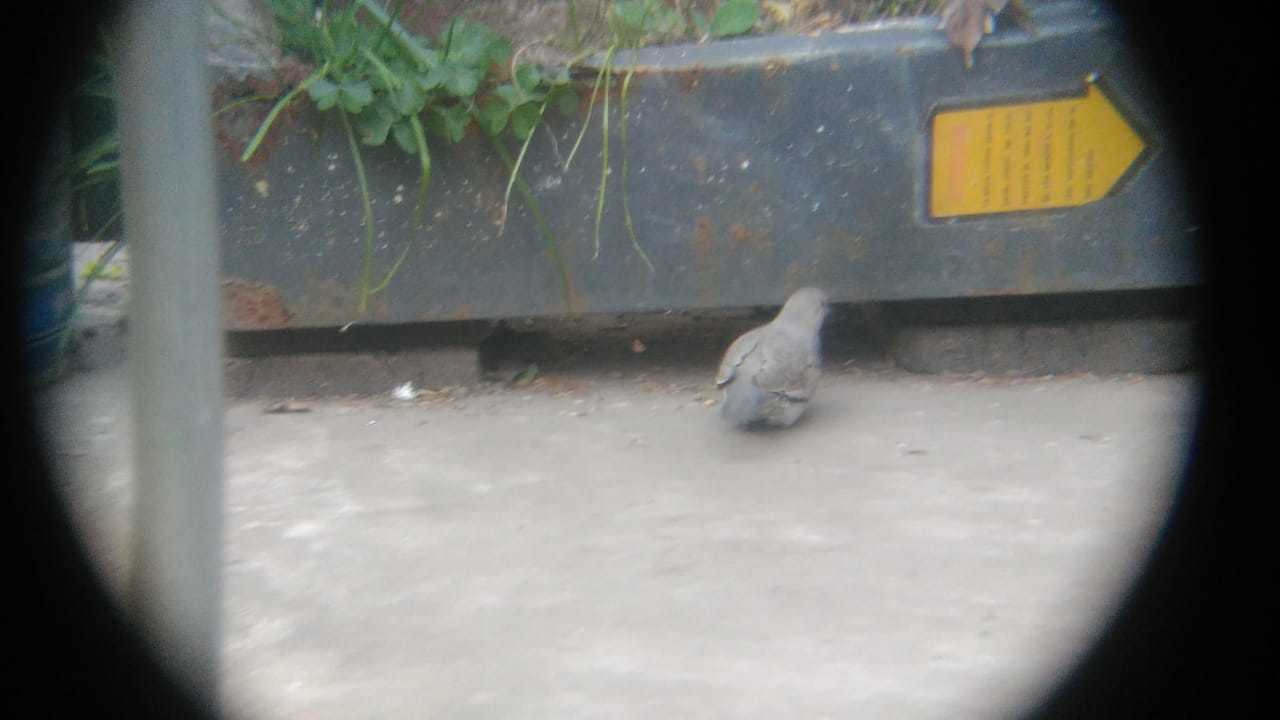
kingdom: Animalia
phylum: Chordata
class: Aves
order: Columbiformes
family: Columbidae
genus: Columbina
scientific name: Columbina picui
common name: Picui ground dove
